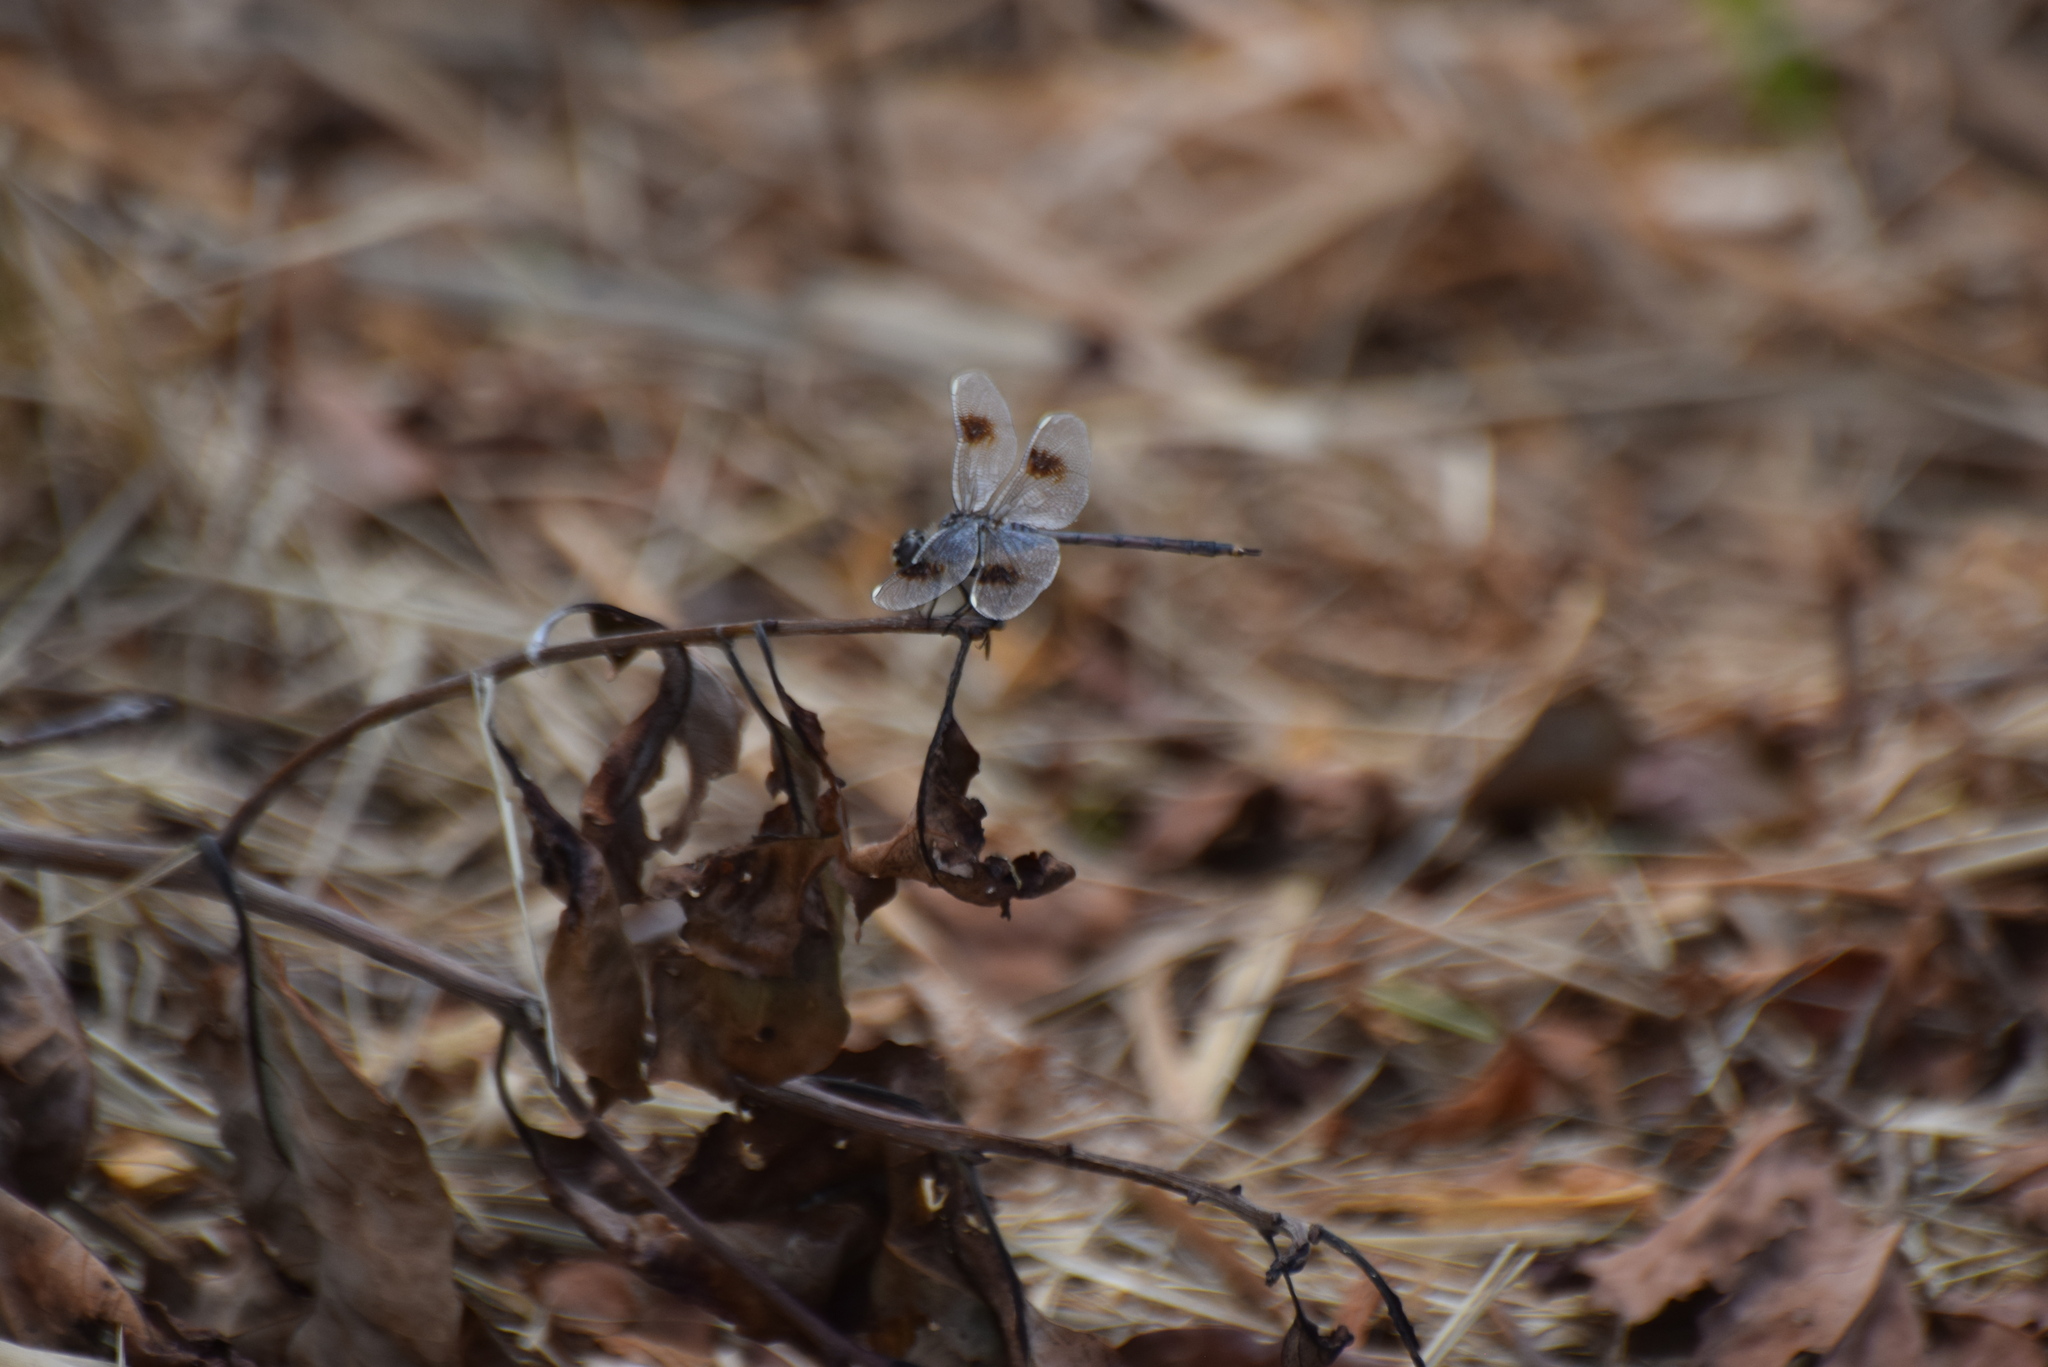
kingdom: Animalia
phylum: Arthropoda
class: Insecta
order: Odonata
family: Libellulidae
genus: Brachymesia
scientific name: Brachymesia gravida
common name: Four-spotted pennant
